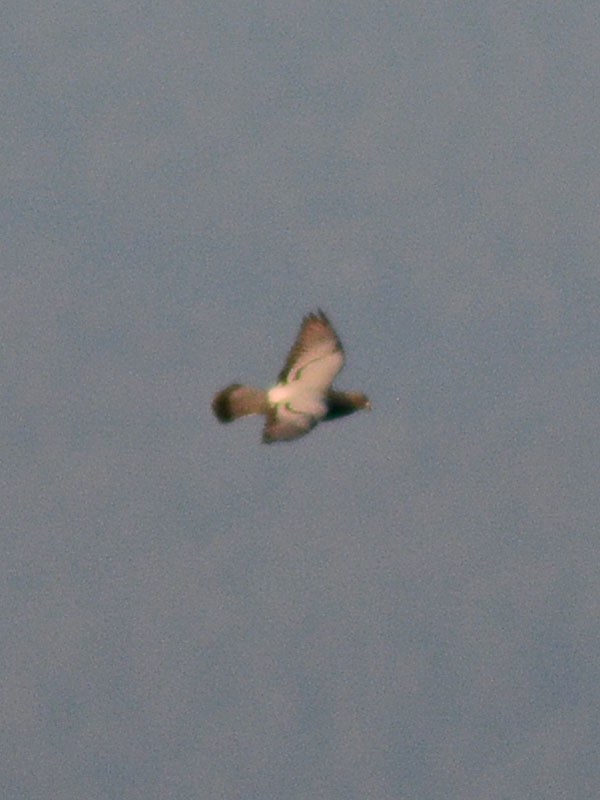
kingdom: Animalia
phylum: Chordata
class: Aves
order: Columbiformes
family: Columbidae
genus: Columba
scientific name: Columba livia
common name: Rock pigeon
